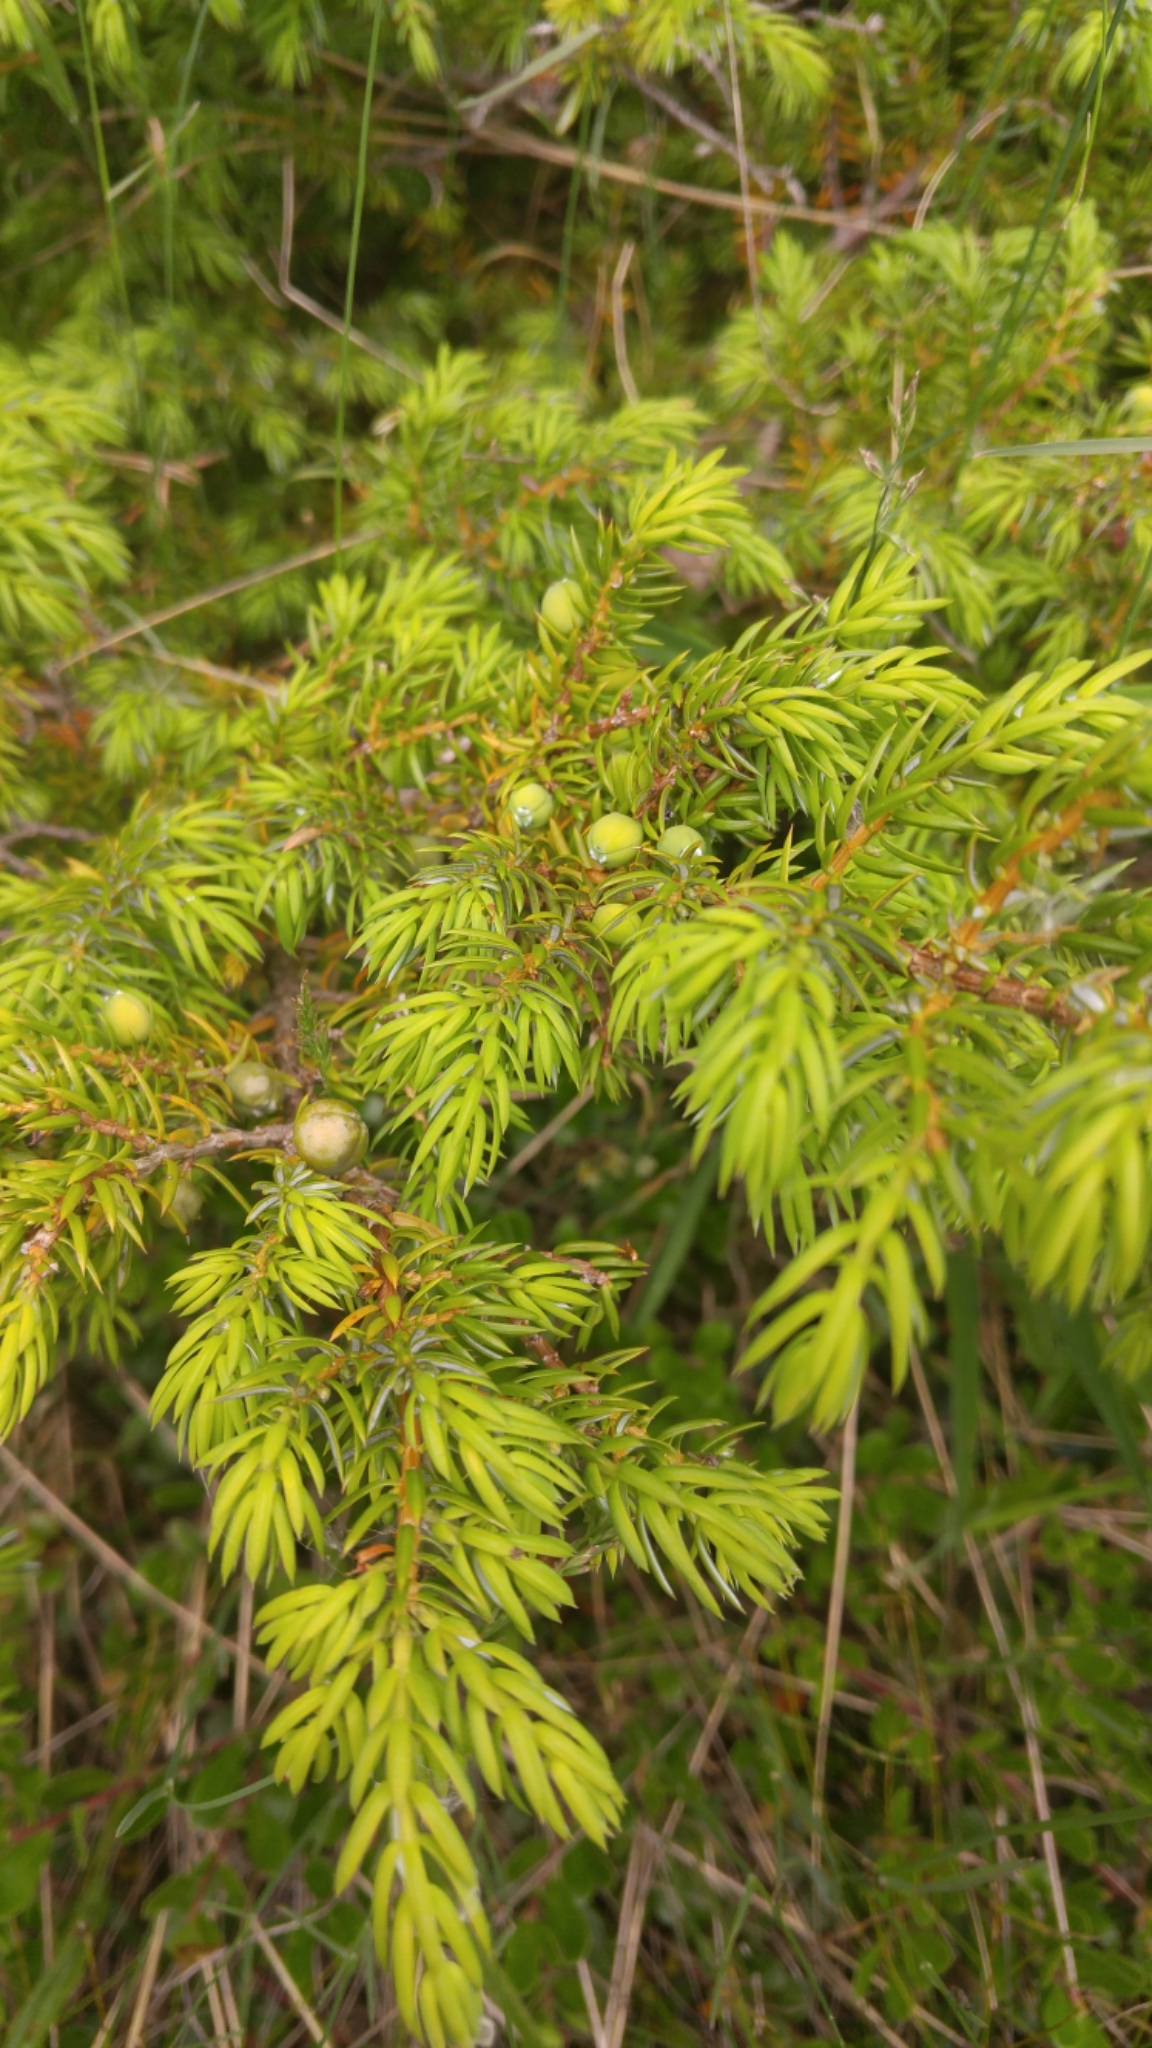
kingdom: Plantae
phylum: Tracheophyta
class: Pinopsida
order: Pinales
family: Cupressaceae
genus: Juniperus
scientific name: Juniperus communis
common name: Common juniper
